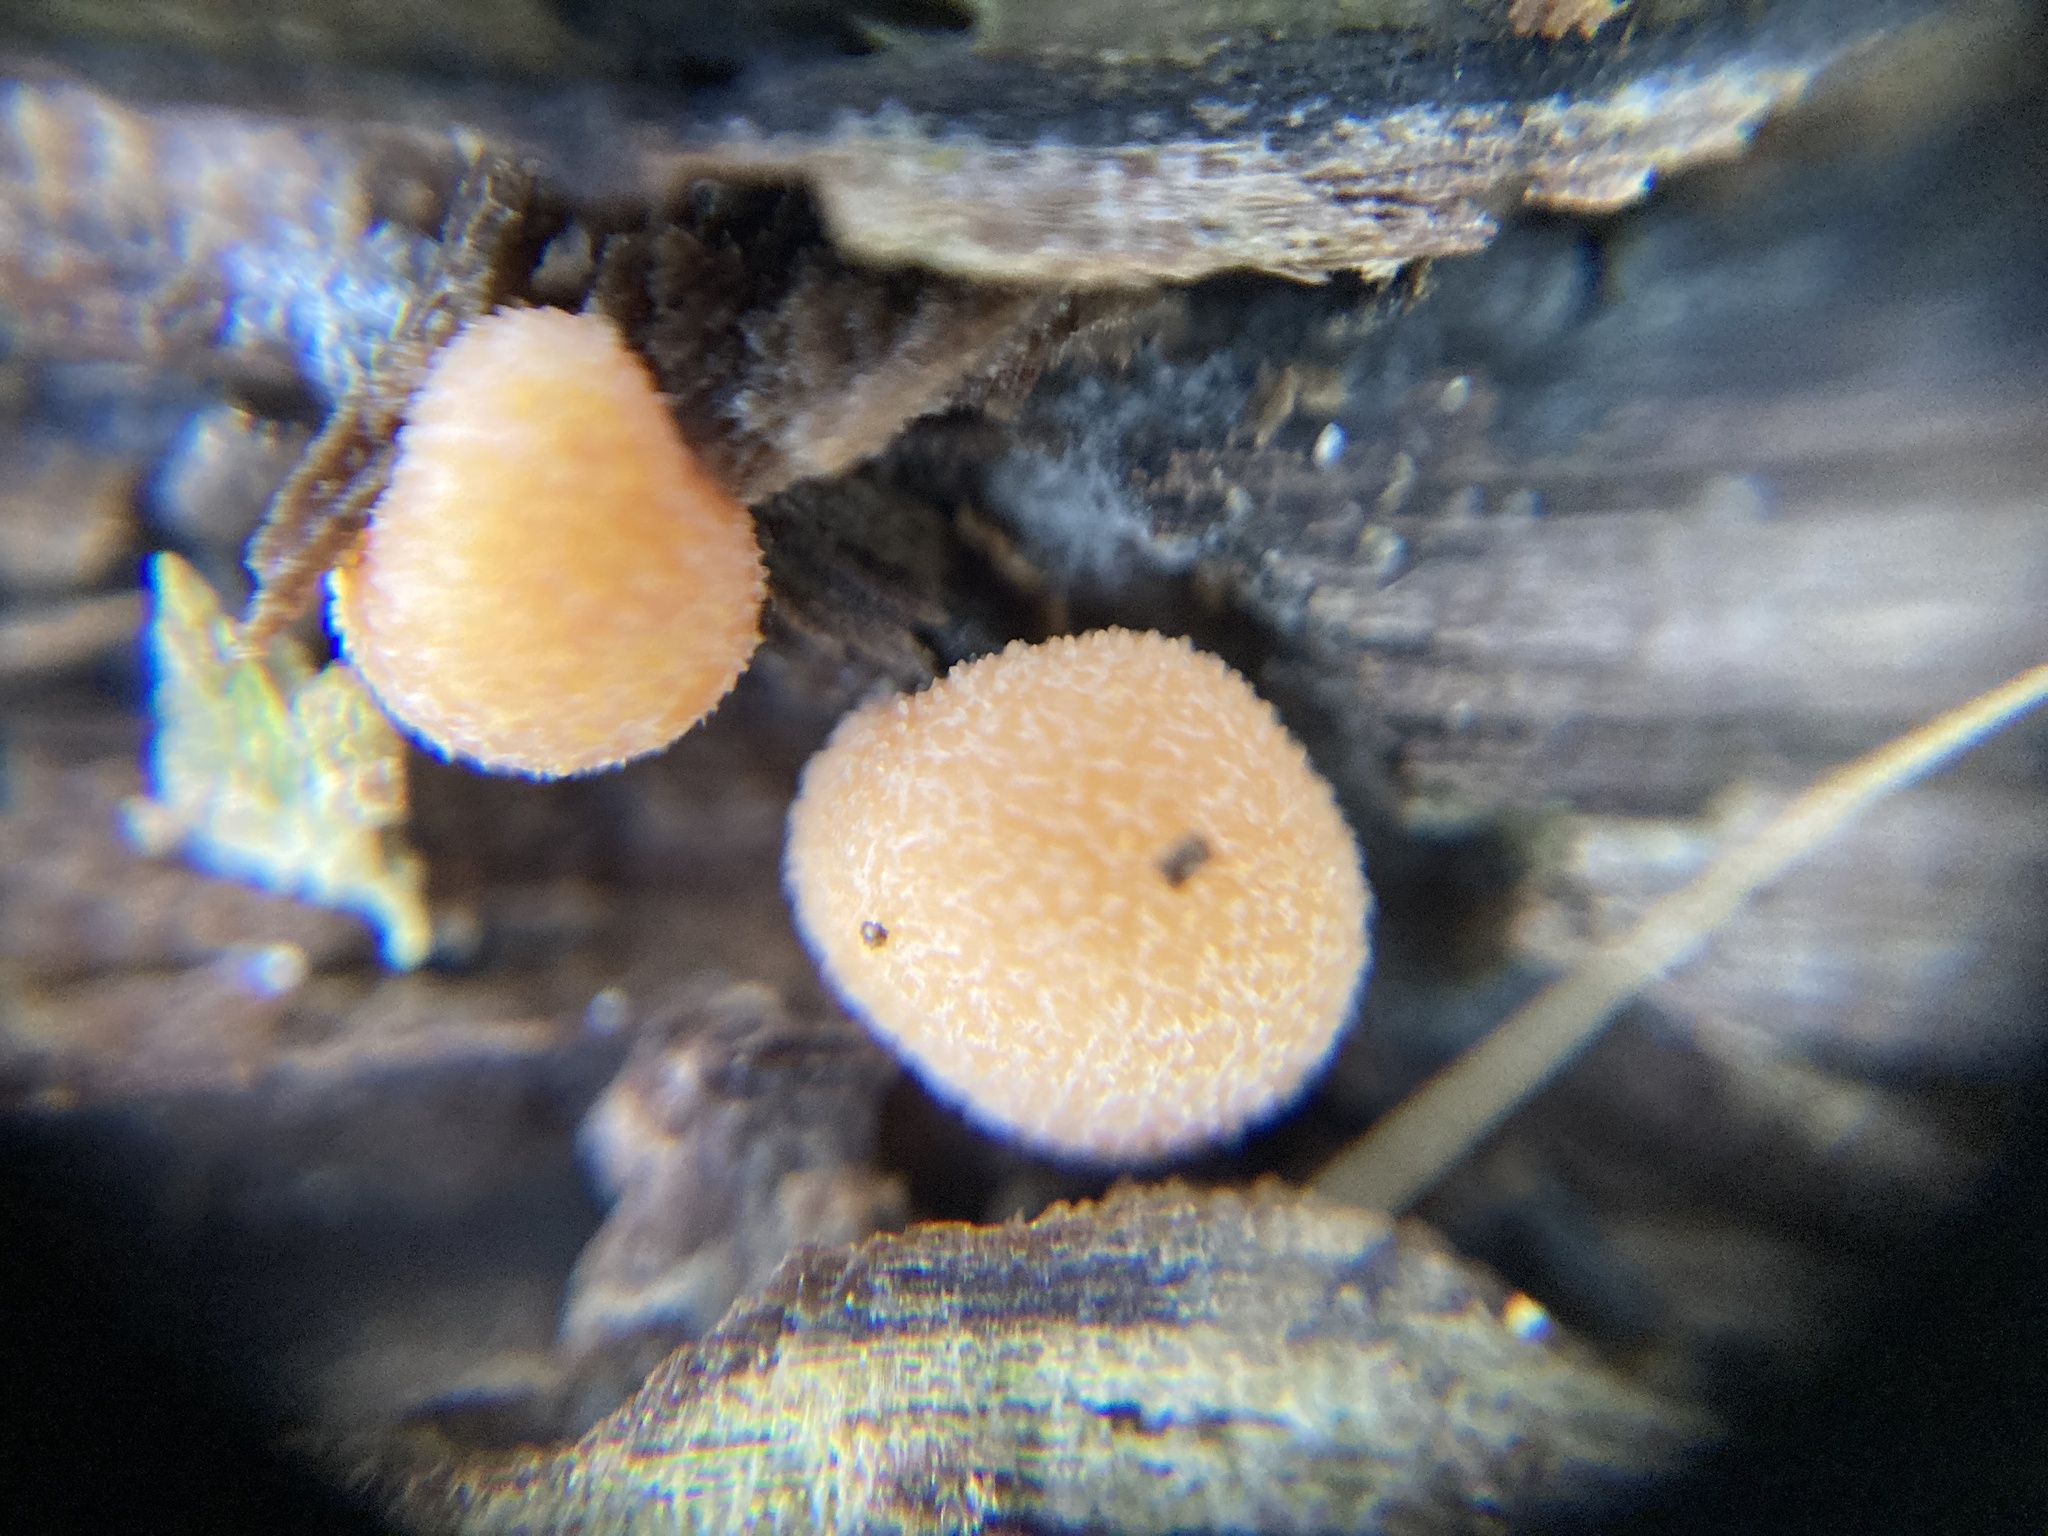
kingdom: Protozoa
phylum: Mycetozoa
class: Myxomycetes
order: Cribrariales
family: Tubiferaceae
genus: Lycogala
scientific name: Lycogala epidendrum
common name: Wolf's milk
